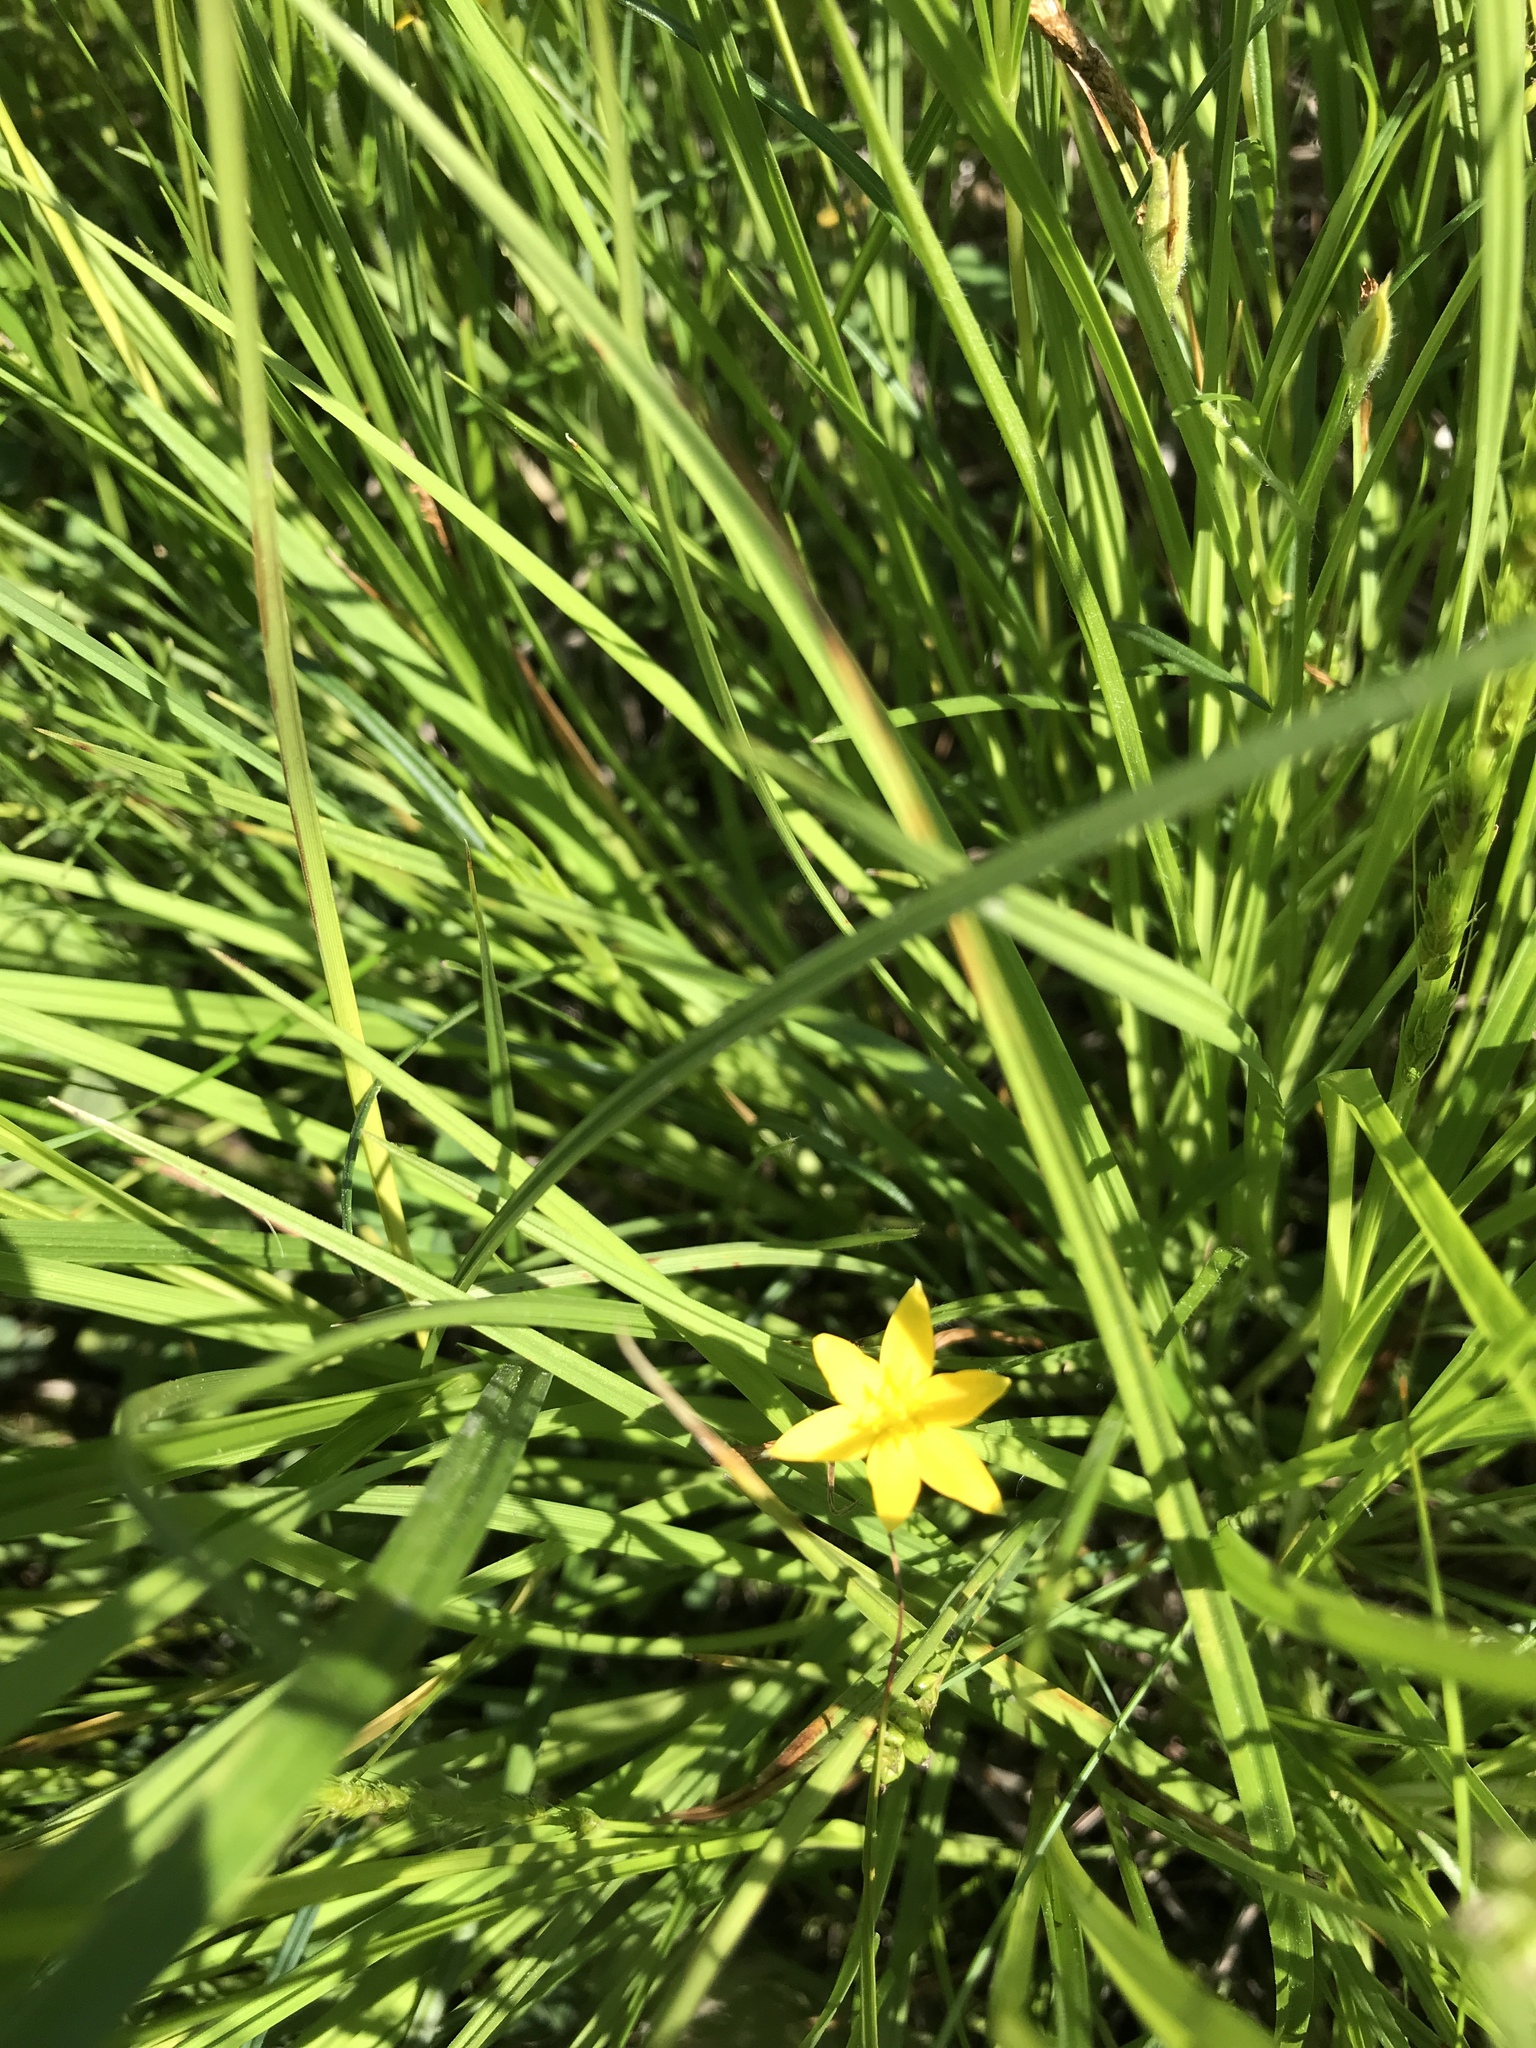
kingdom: Plantae
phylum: Tracheophyta
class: Liliopsida
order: Asparagales
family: Hypoxidaceae
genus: Hypoxis
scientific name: Hypoxis hirsuta
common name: Common goldstar
